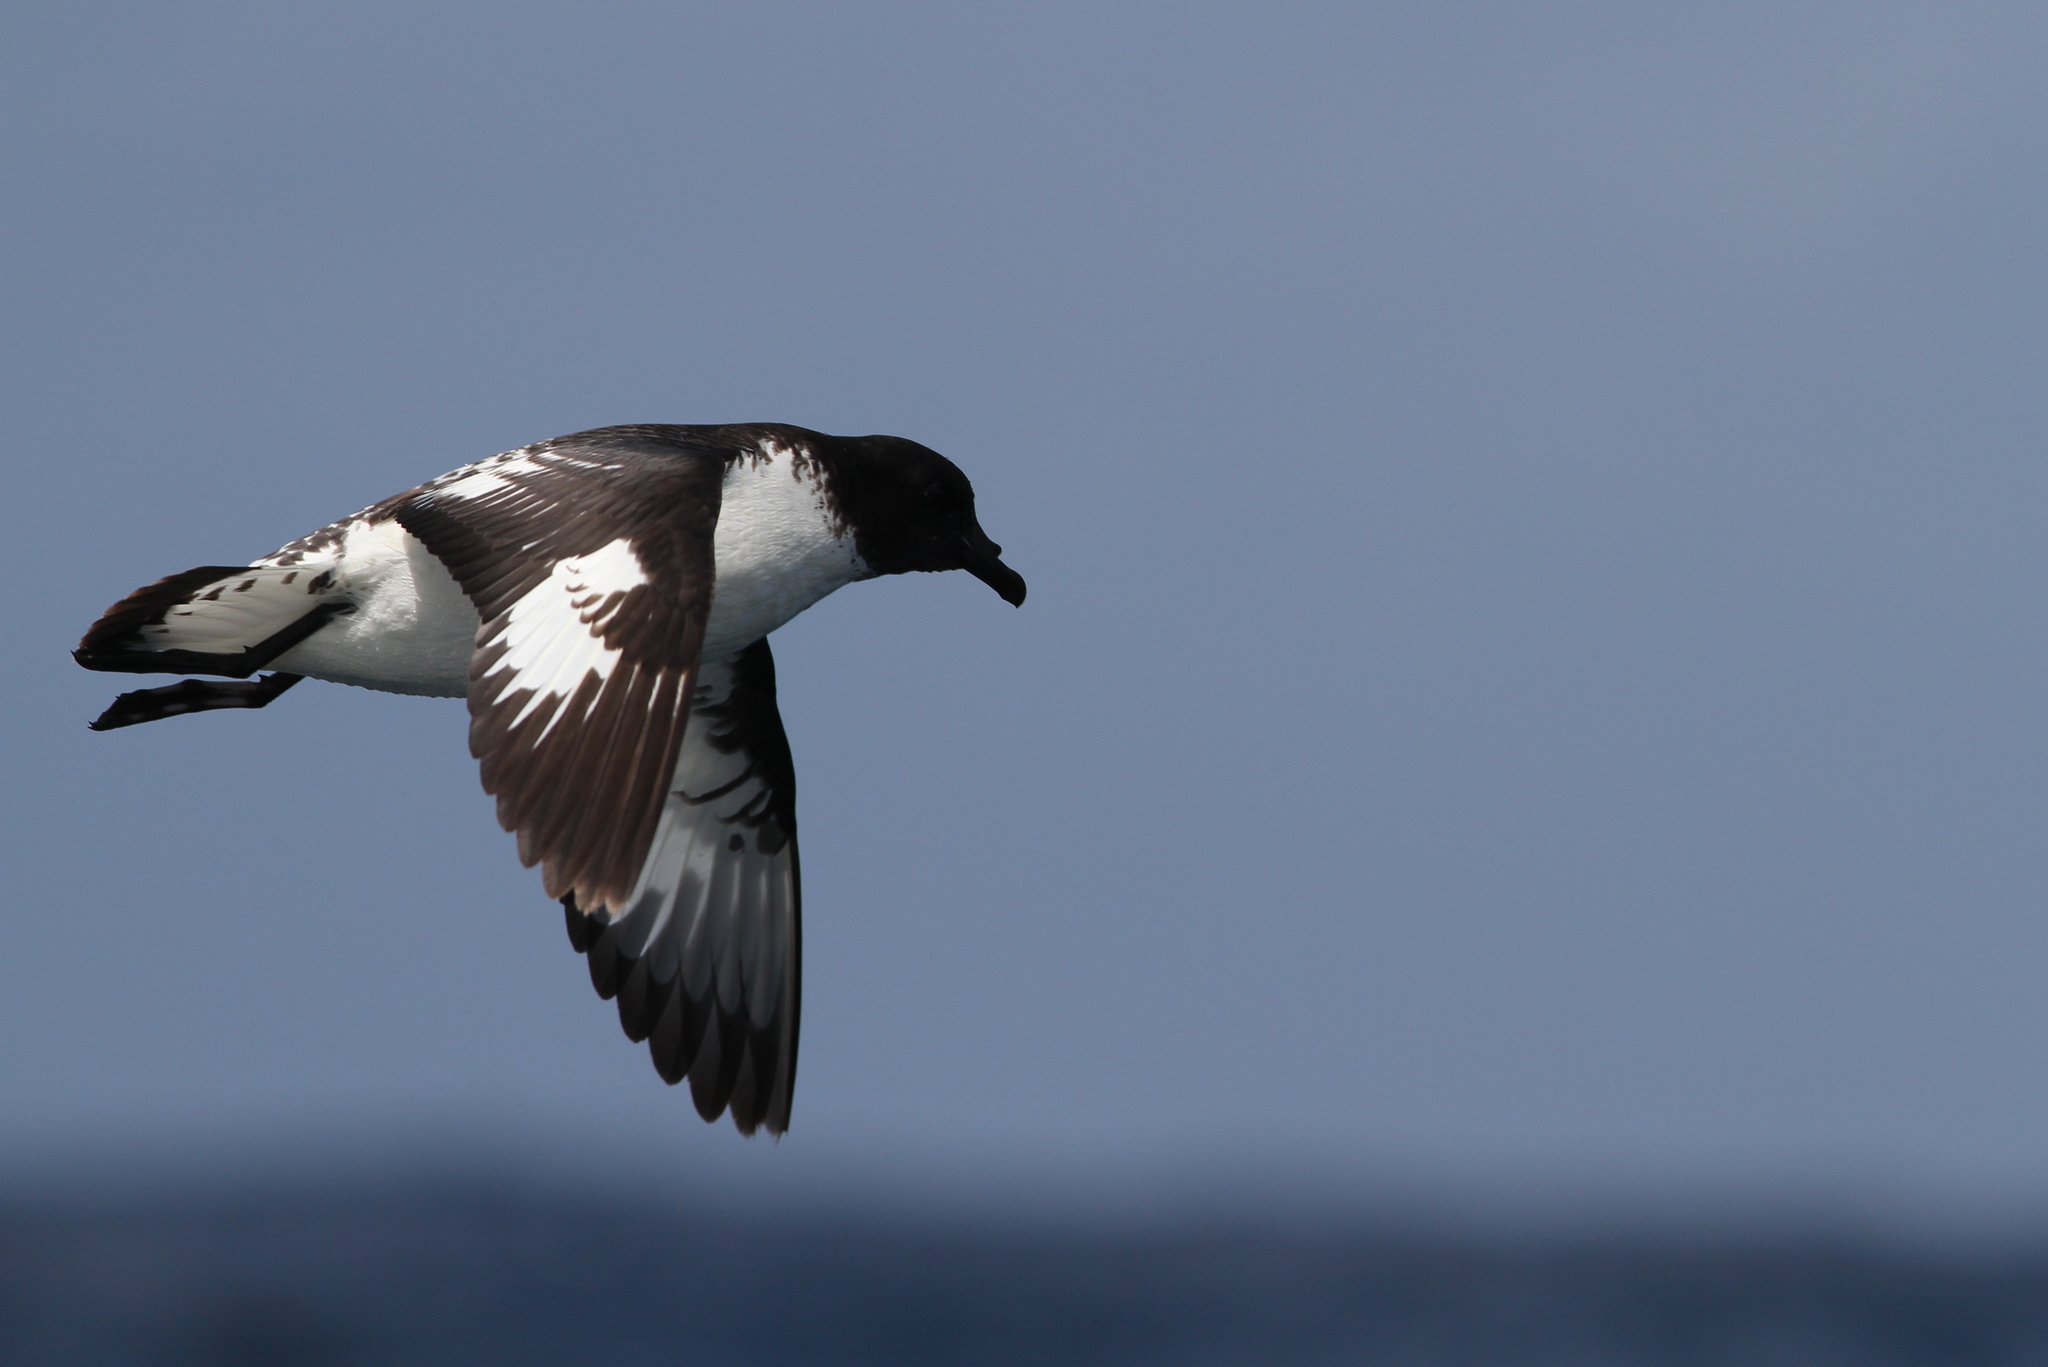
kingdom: Animalia
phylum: Chordata
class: Aves
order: Procellariiformes
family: Procellariidae
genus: Daption
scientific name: Daption capense
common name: Cape petrel
